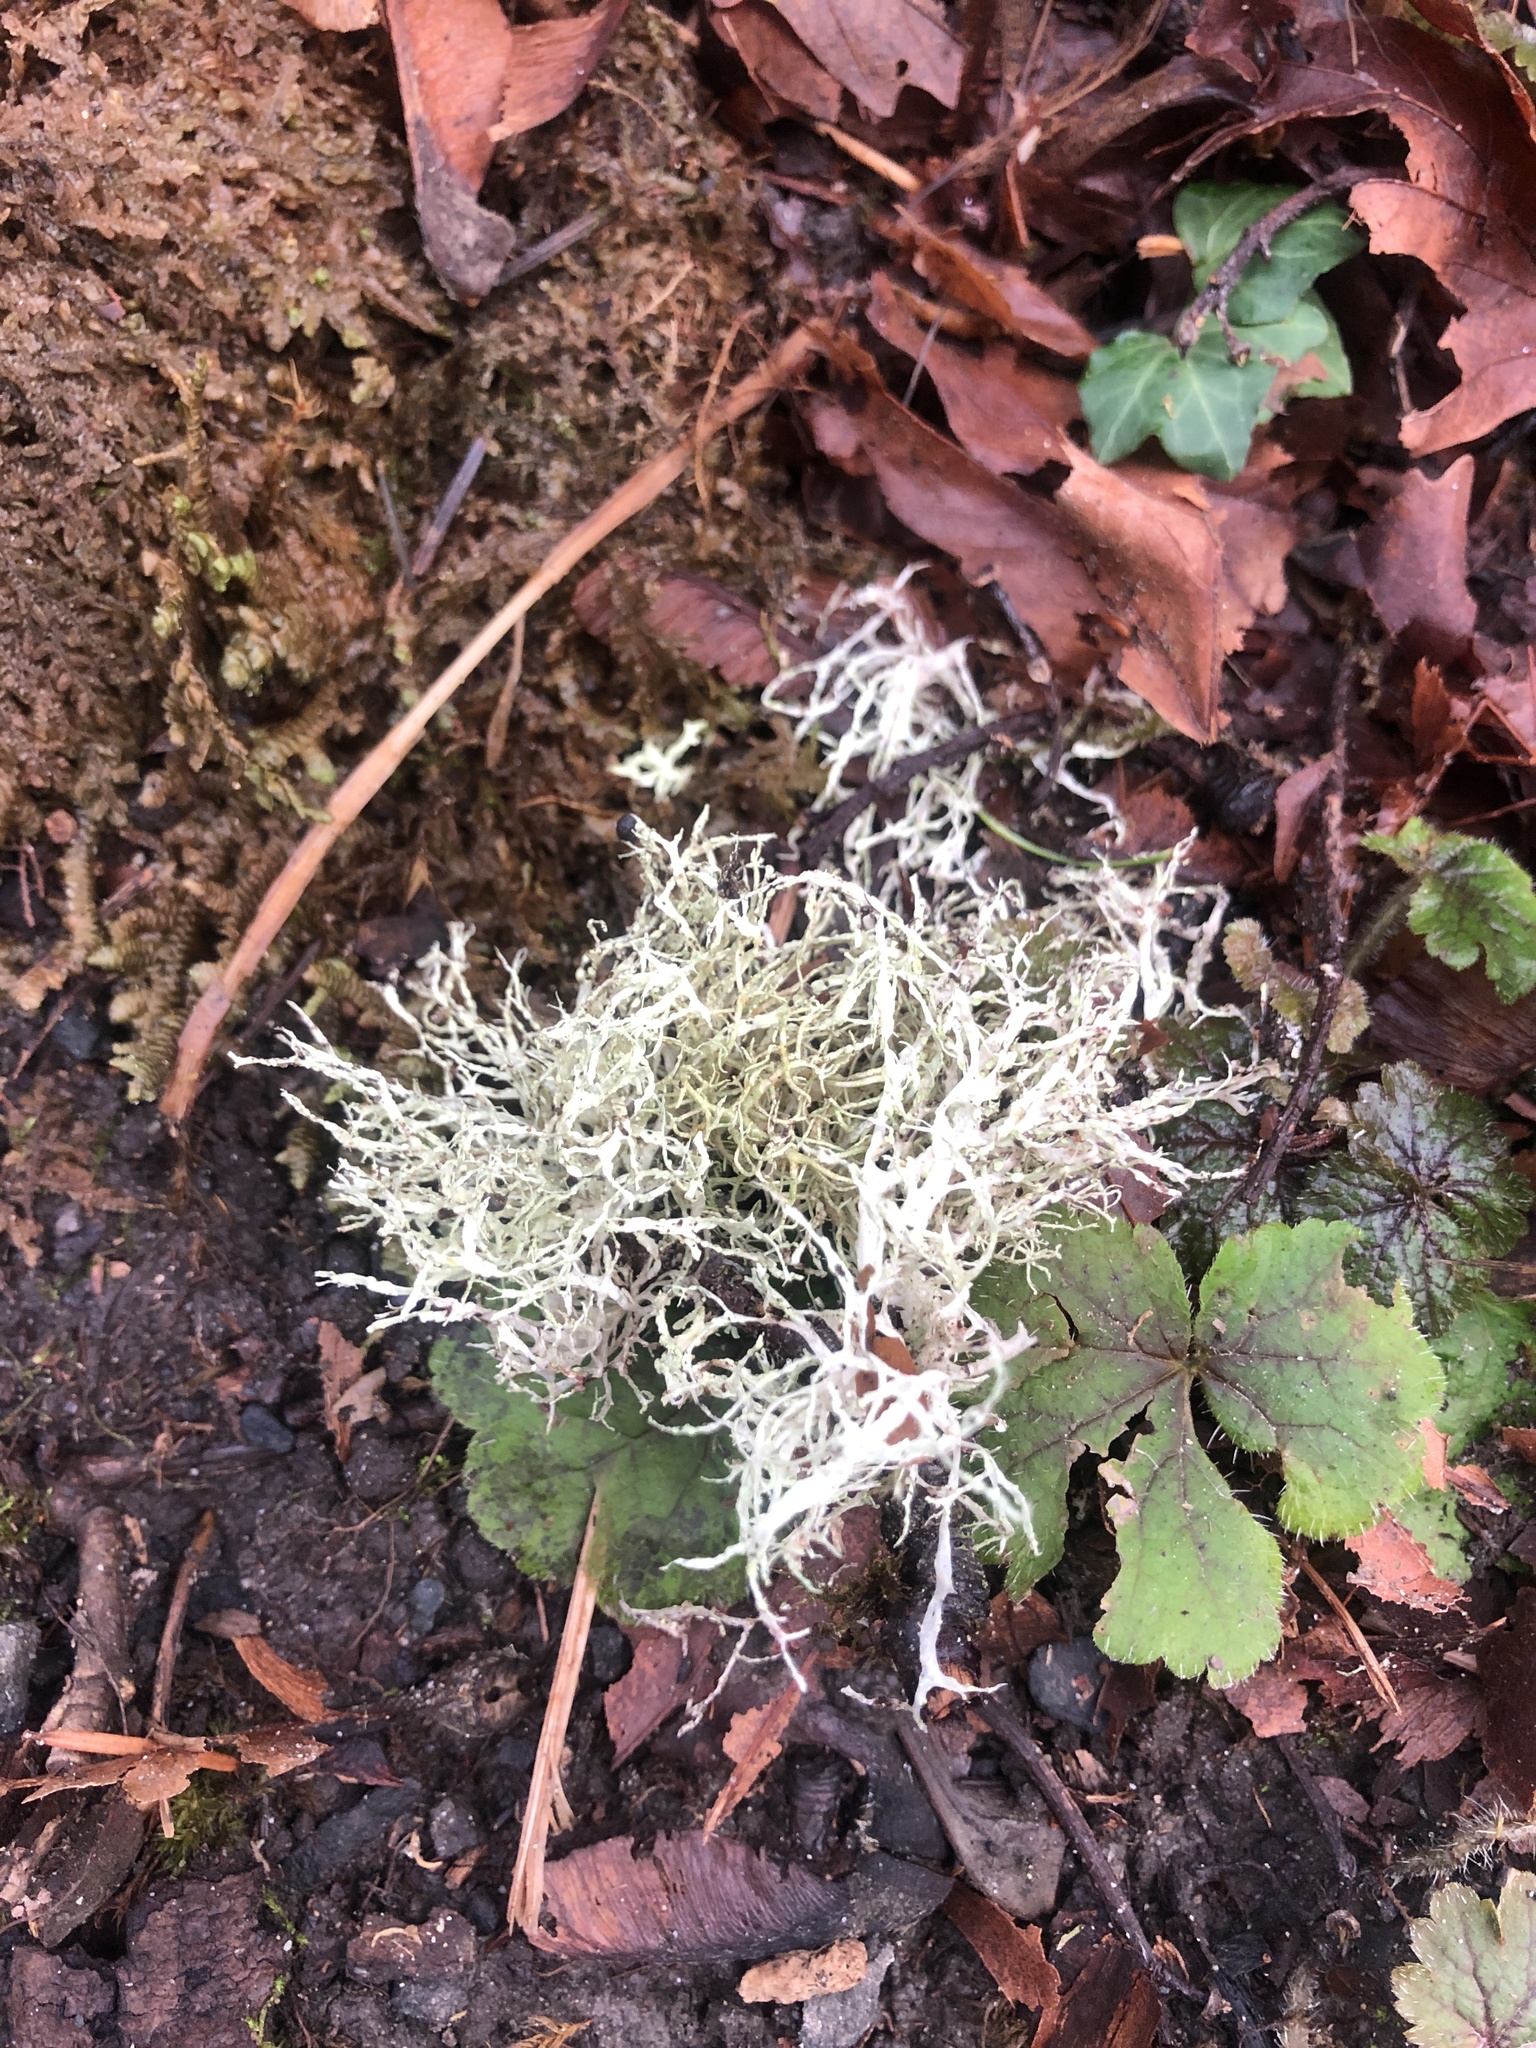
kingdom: Fungi
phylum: Ascomycota
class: Lecanoromycetes
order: Lecanorales
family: Ramalinaceae
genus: Ramalina
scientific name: Ramalina farinacea
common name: Farinose cartilage lichen
